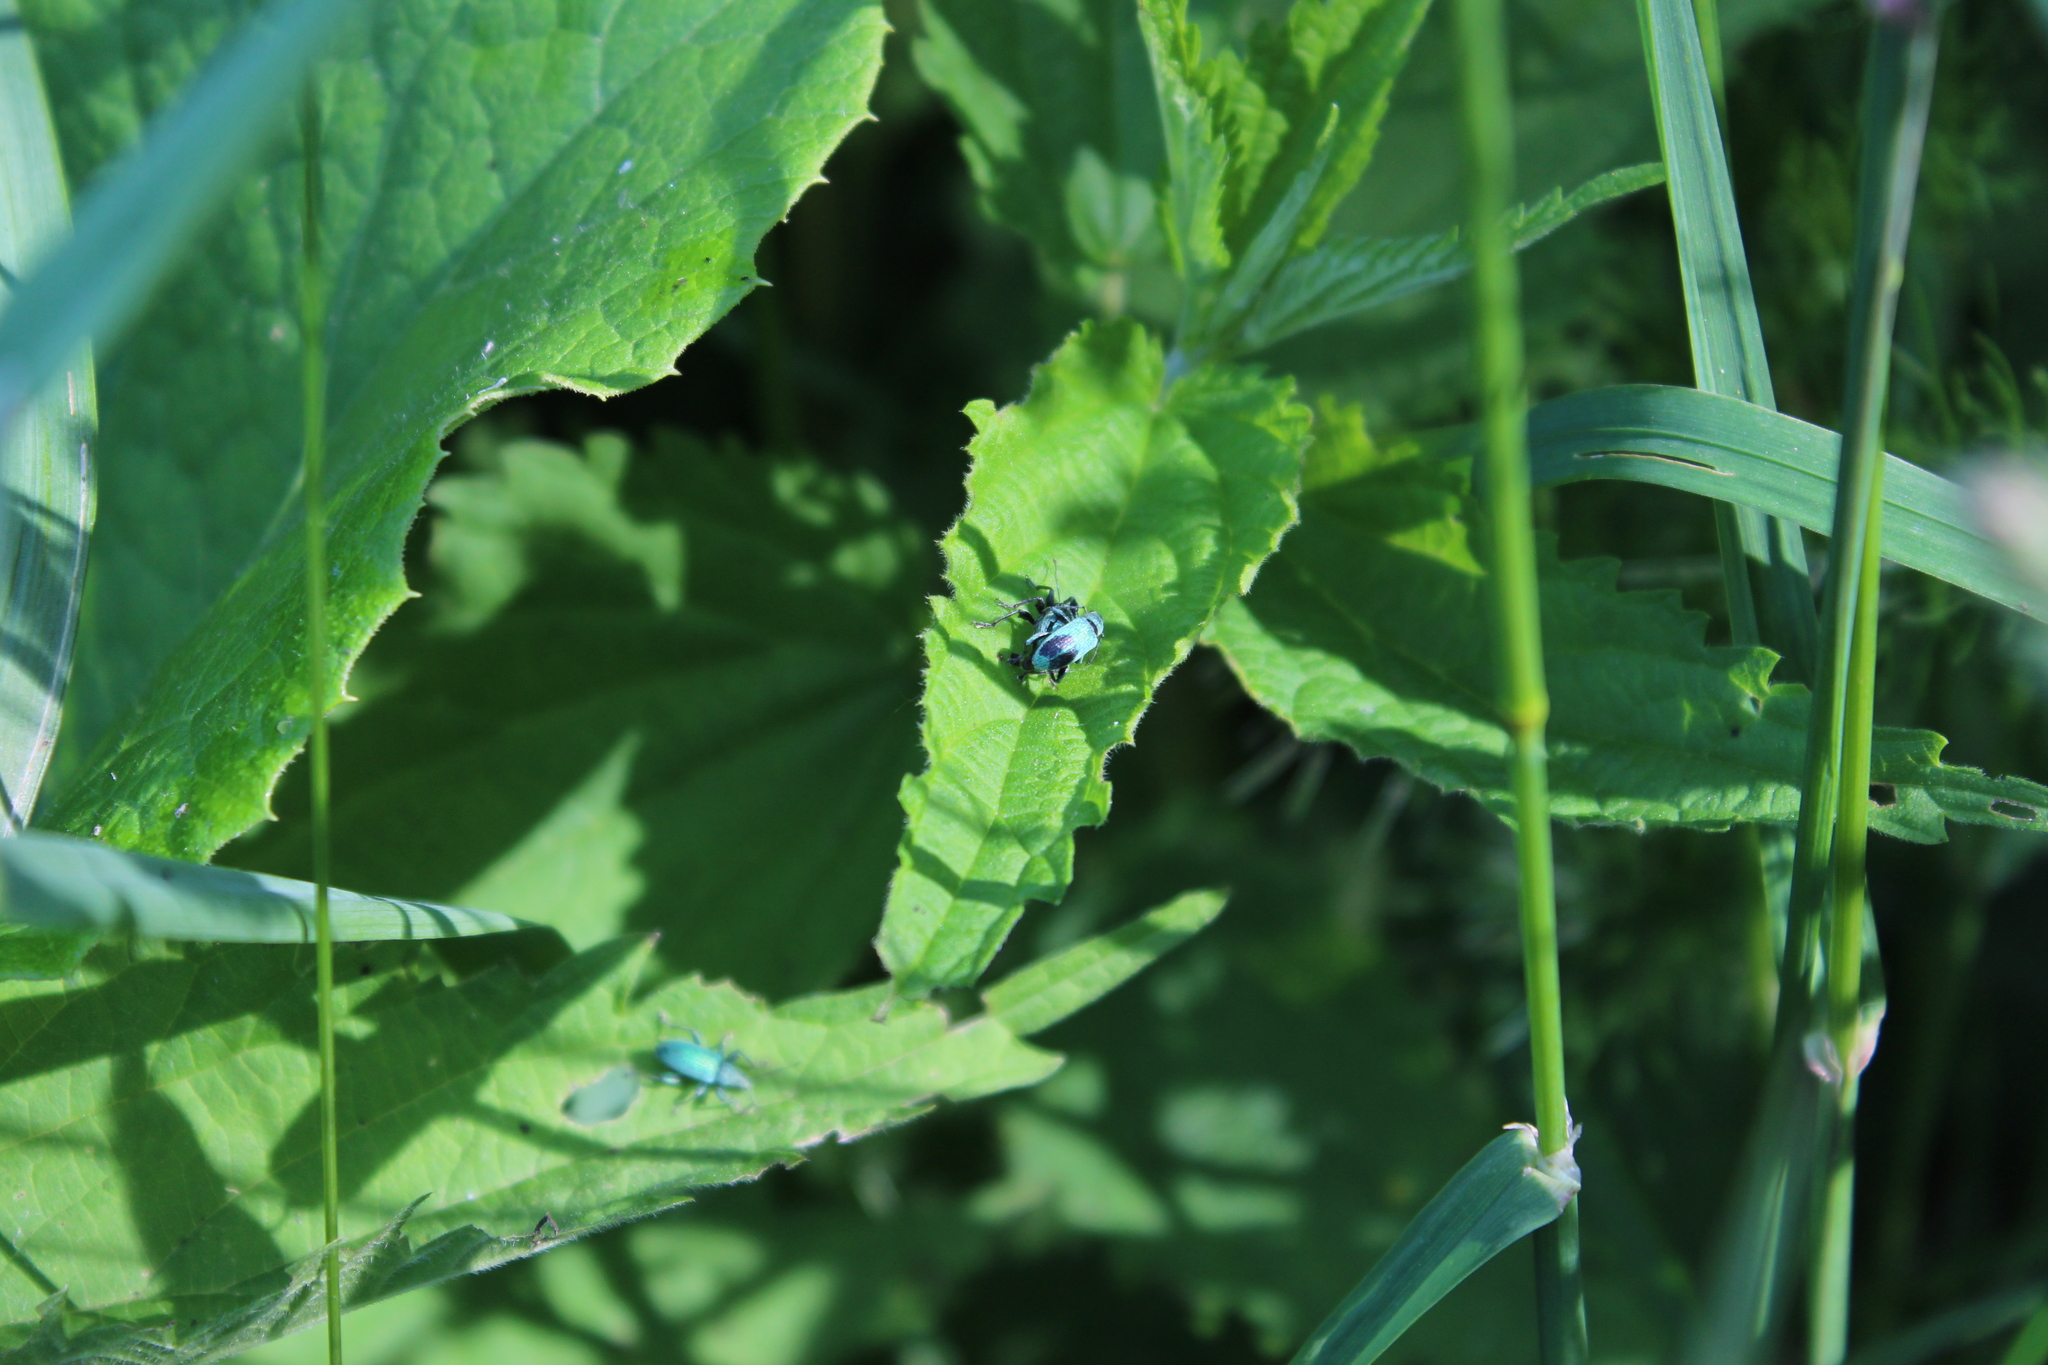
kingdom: Animalia
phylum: Arthropoda
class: Insecta
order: Coleoptera
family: Curculionidae
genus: Phyllobius
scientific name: Phyllobius pomaceus
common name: Green nettle weevil
